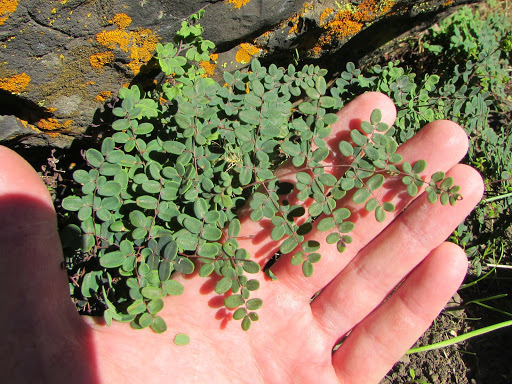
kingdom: Plantae
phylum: Tracheophyta
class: Polypodiopsida
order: Polypodiales
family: Pteridaceae
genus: Pellaea
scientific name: Pellaea andromedifolia
